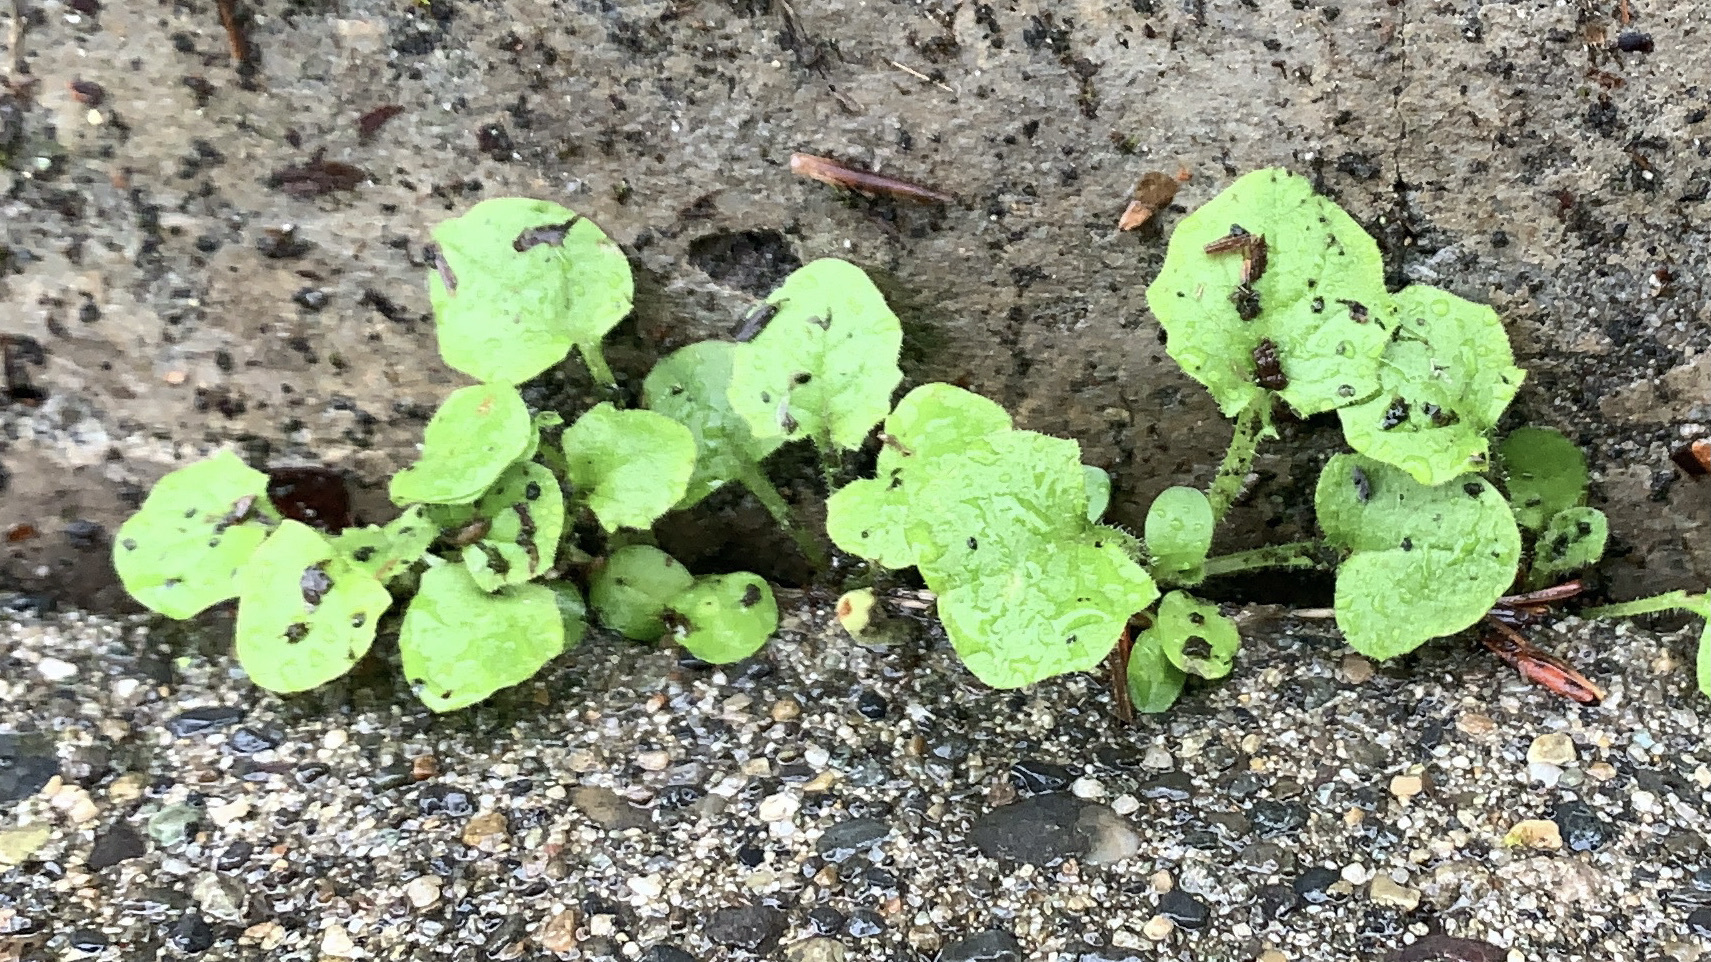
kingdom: Plantae
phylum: Tracheophyta
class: Magnoliopsida
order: Asterales
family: Asteraceae
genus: Lapsana
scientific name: Lapsana communis
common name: Nipplewort
